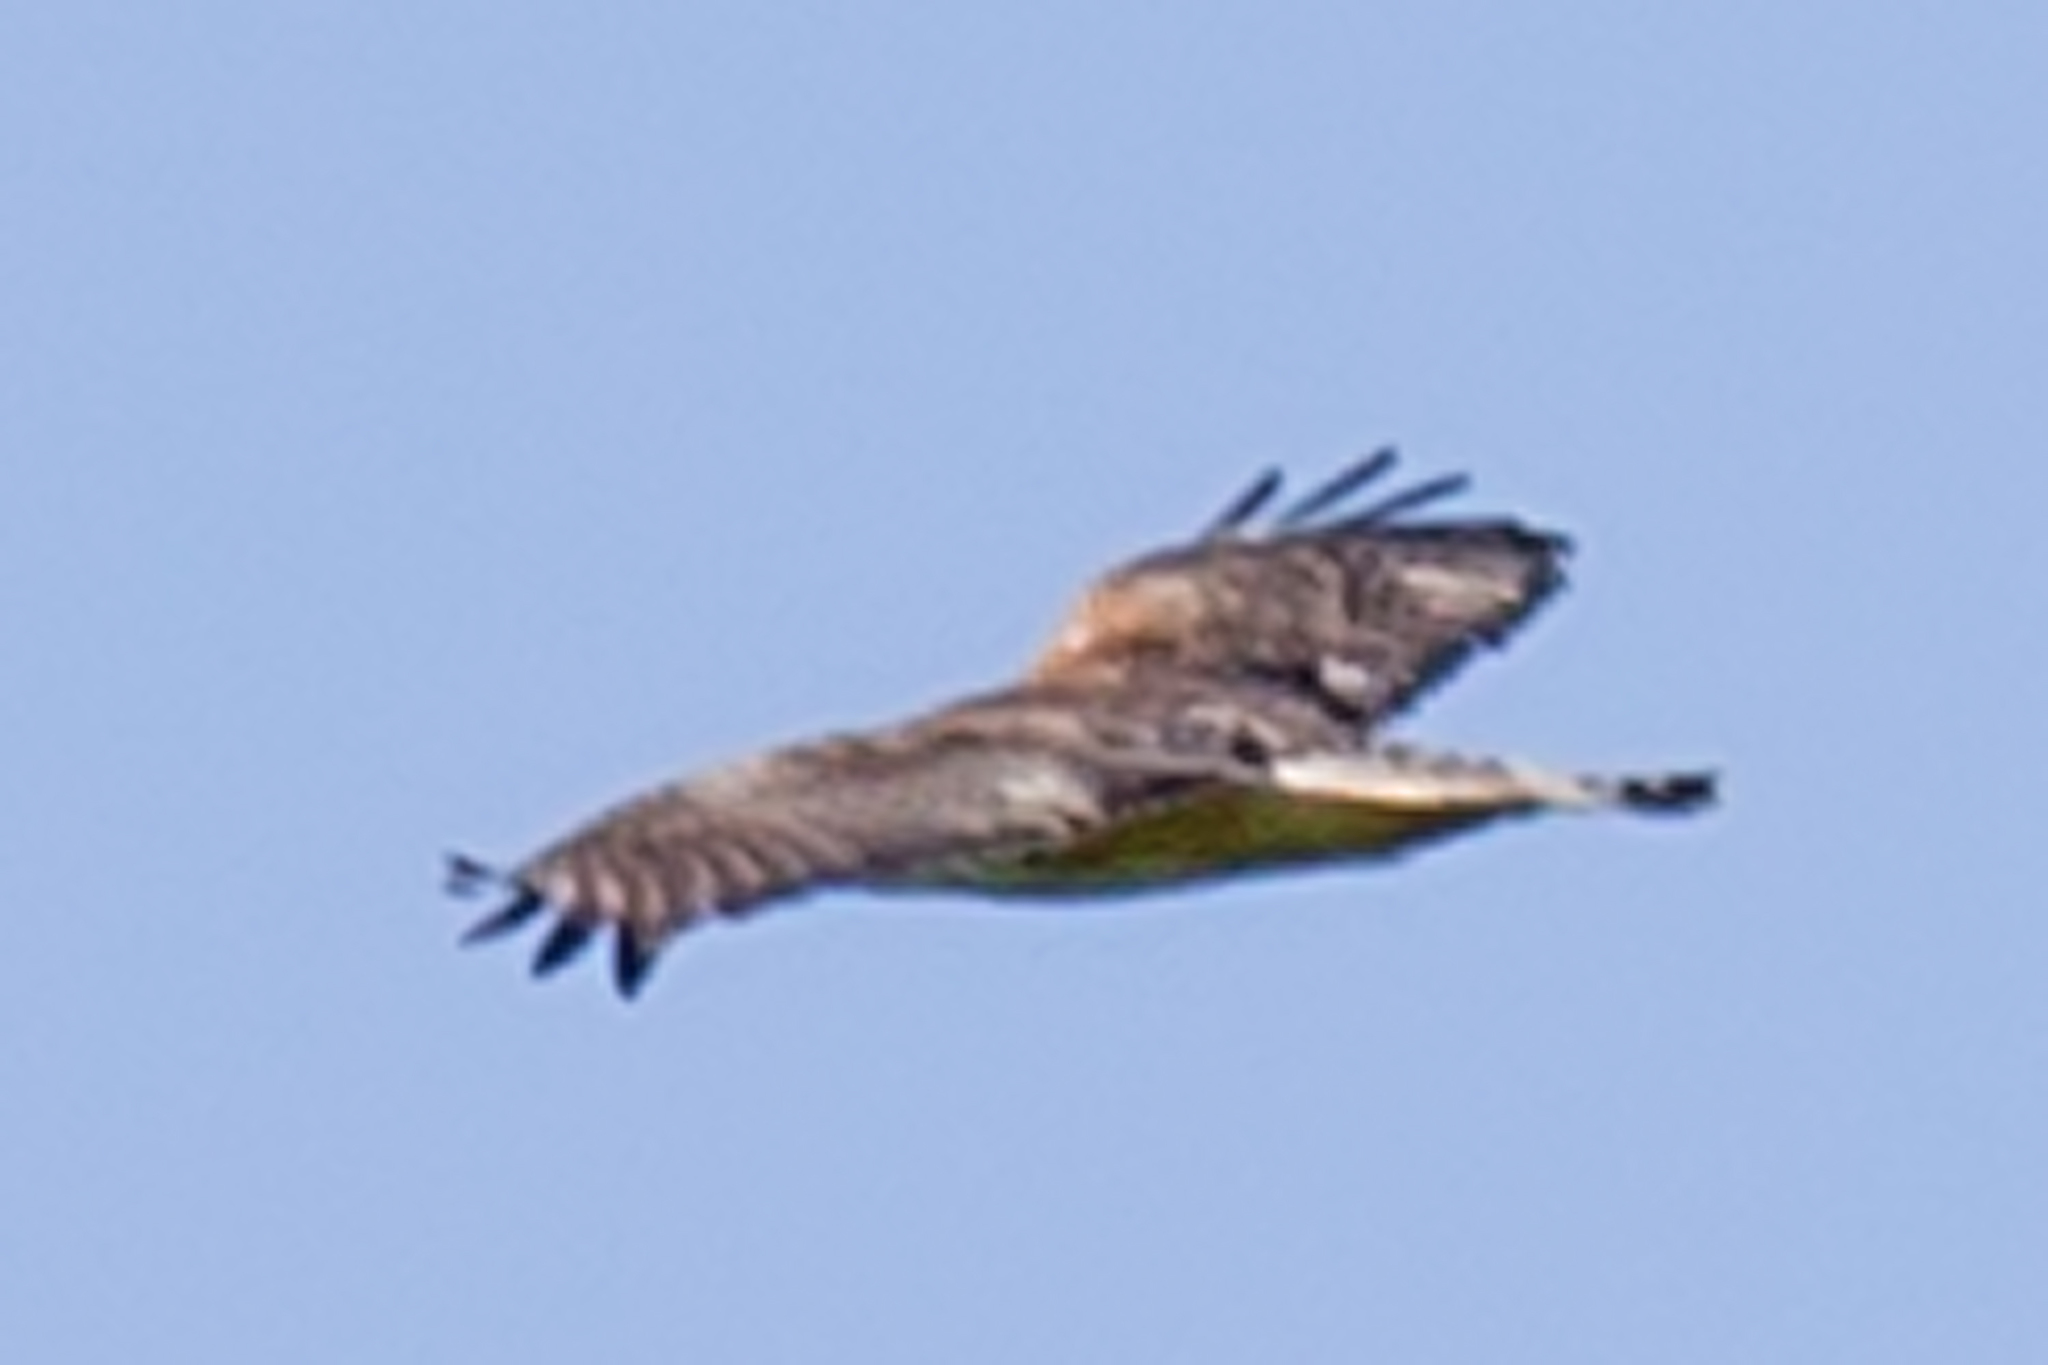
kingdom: Animalia
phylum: Chordata
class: Aves
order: Accipitriformes
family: Accipitridae
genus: Buteo
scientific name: Buteo
